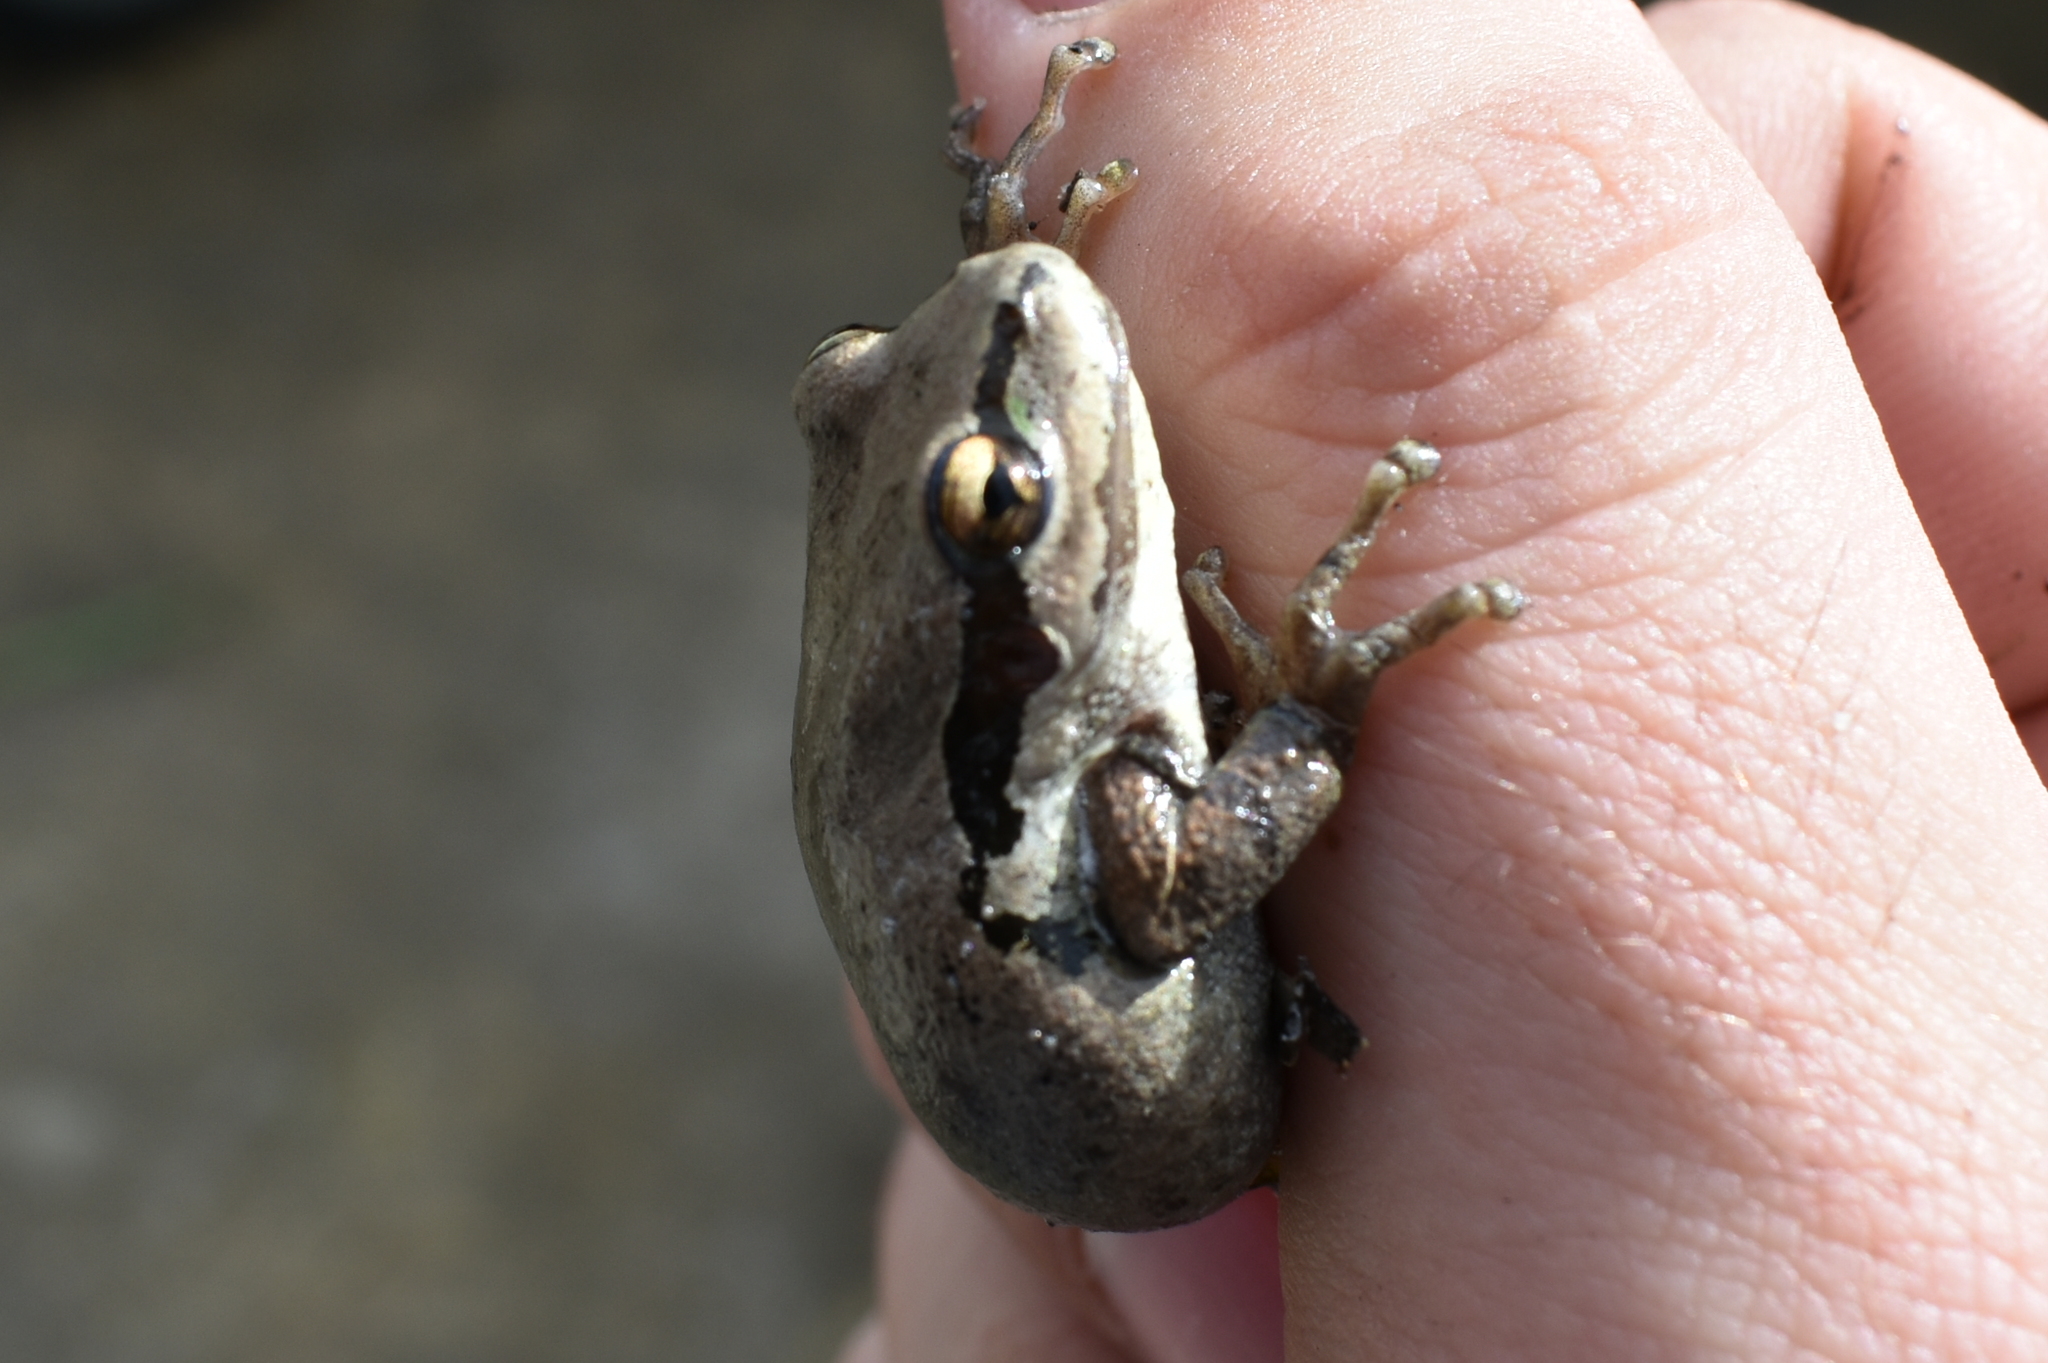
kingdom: Animalia
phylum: Chordata
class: Amphibia
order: Anura
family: Hylidae
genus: Pseudacris
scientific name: Pseudacris regilla
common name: Pacific chorus frog
